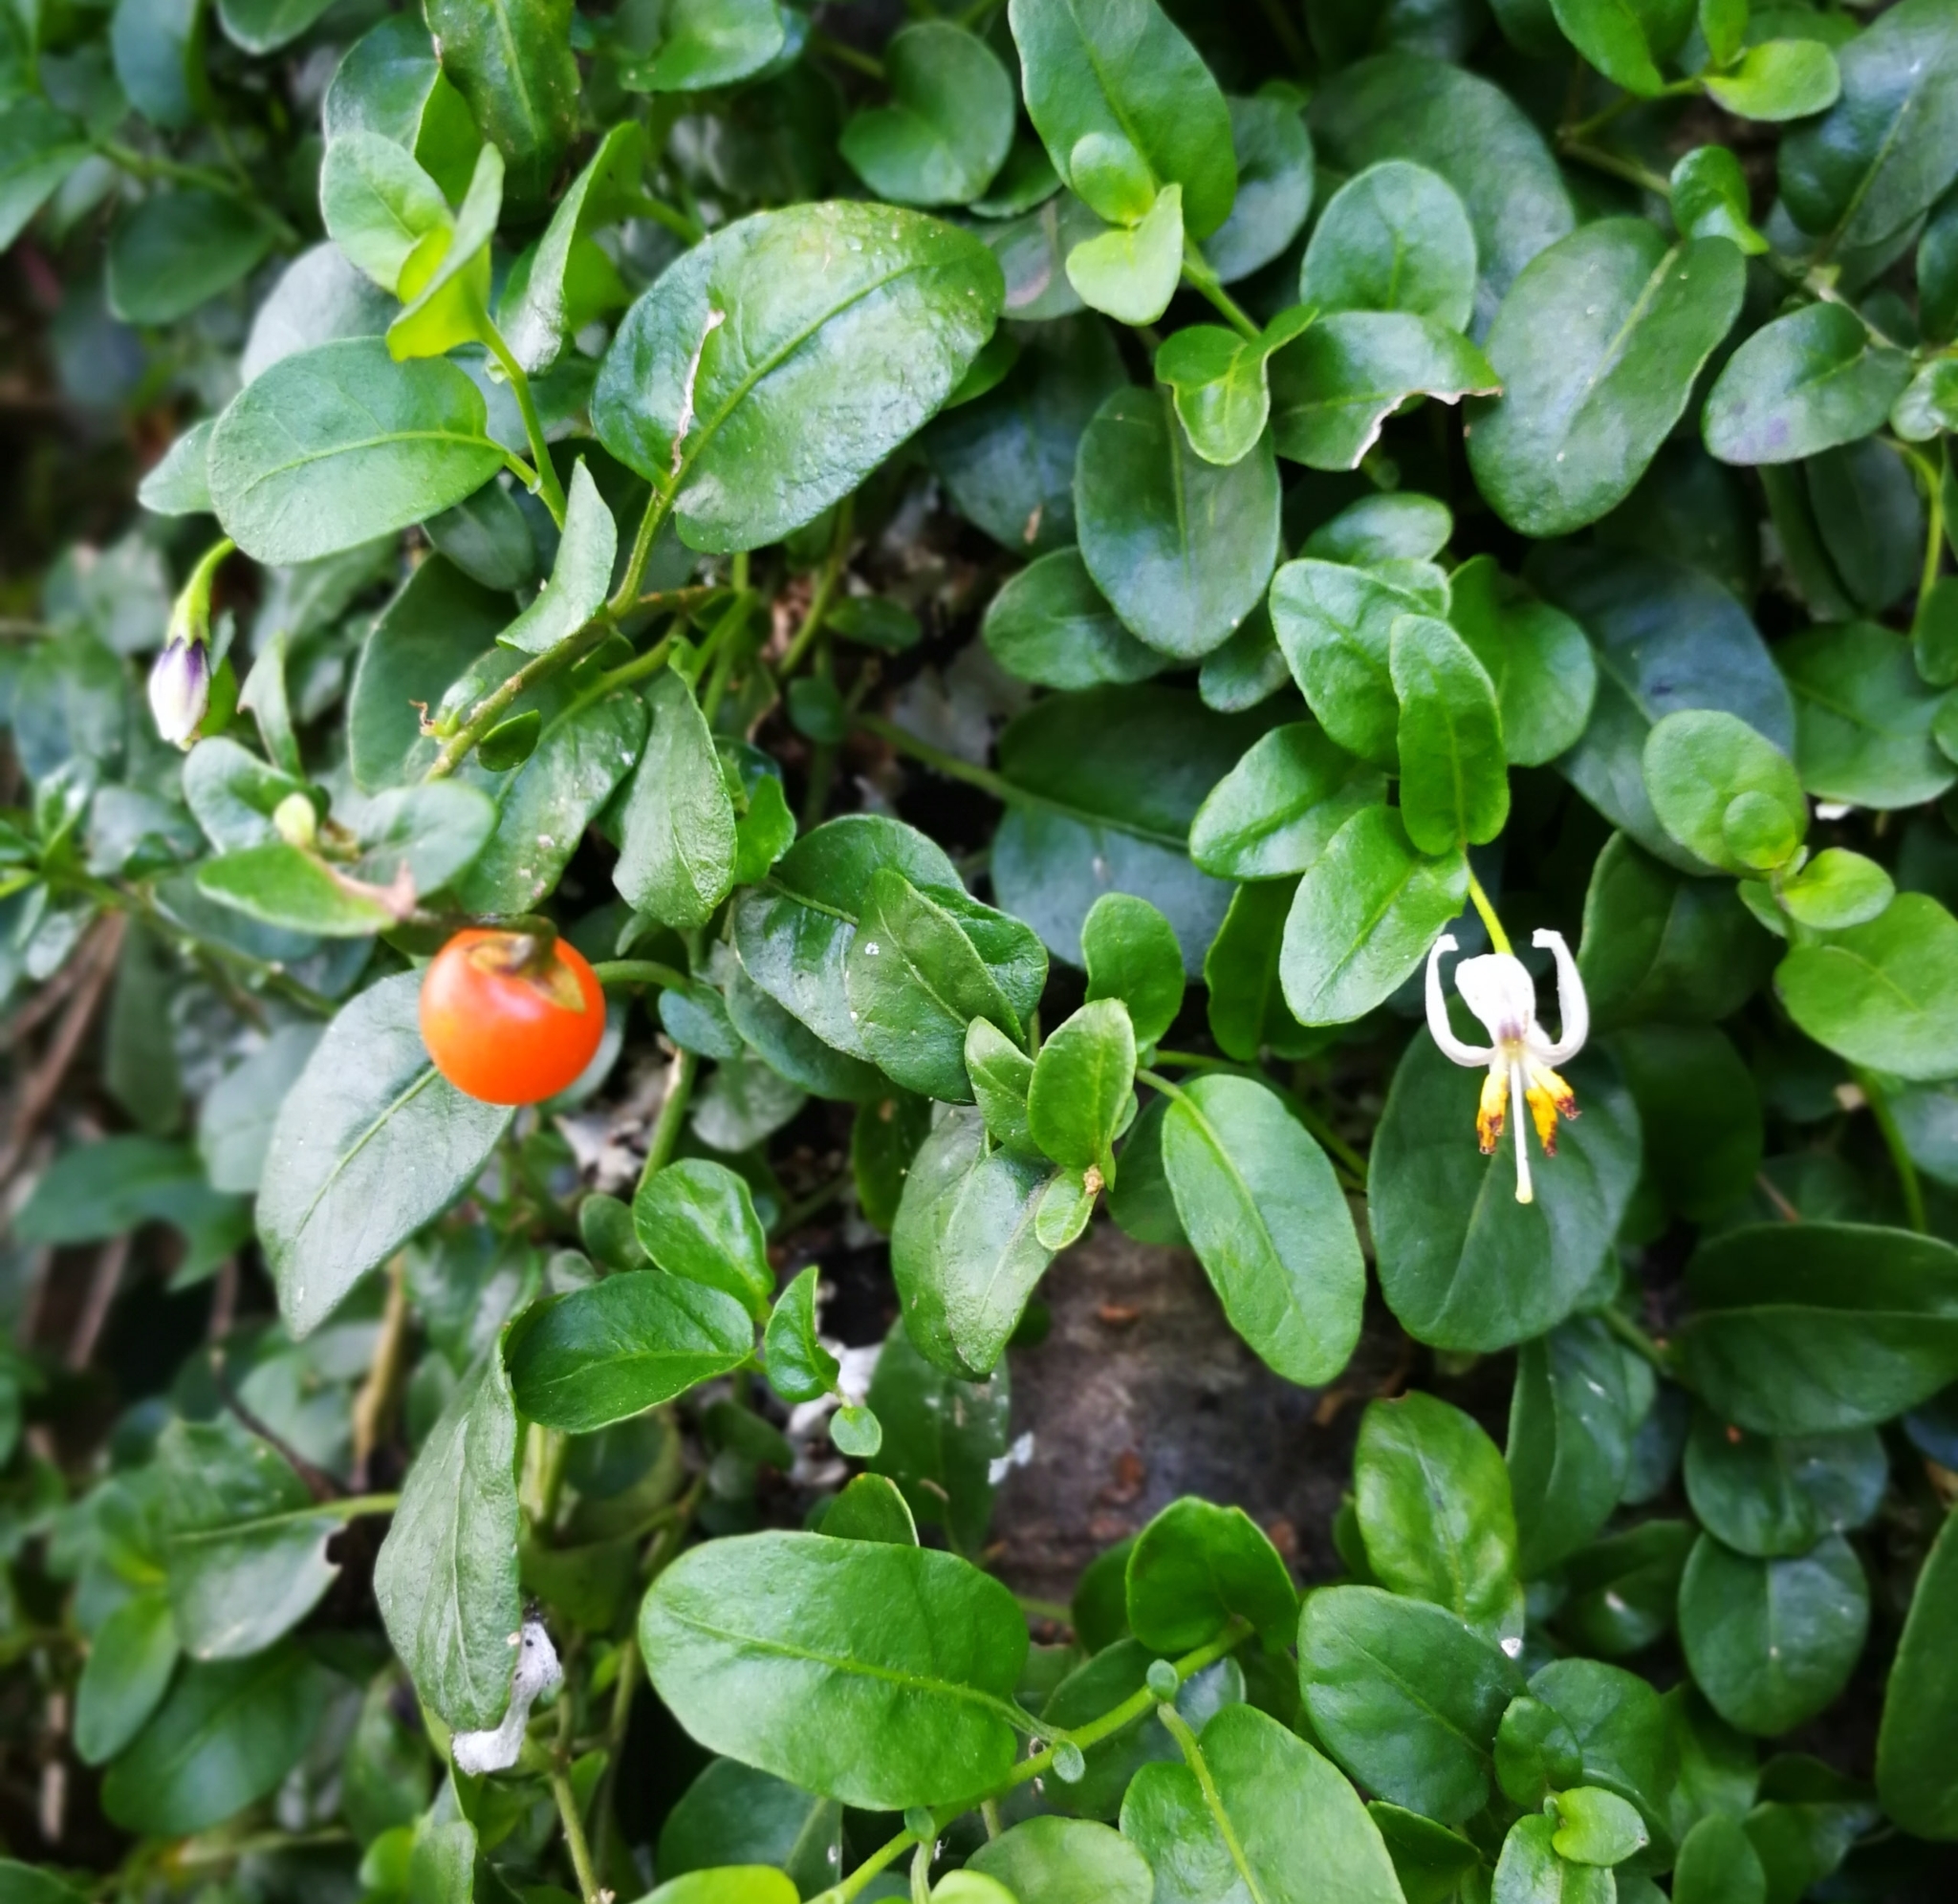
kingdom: Plantae
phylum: Tracheophyta
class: Magnoliopsida
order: Solanales
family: Solanaceae
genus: Solanum
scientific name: Solanum brevifolium
